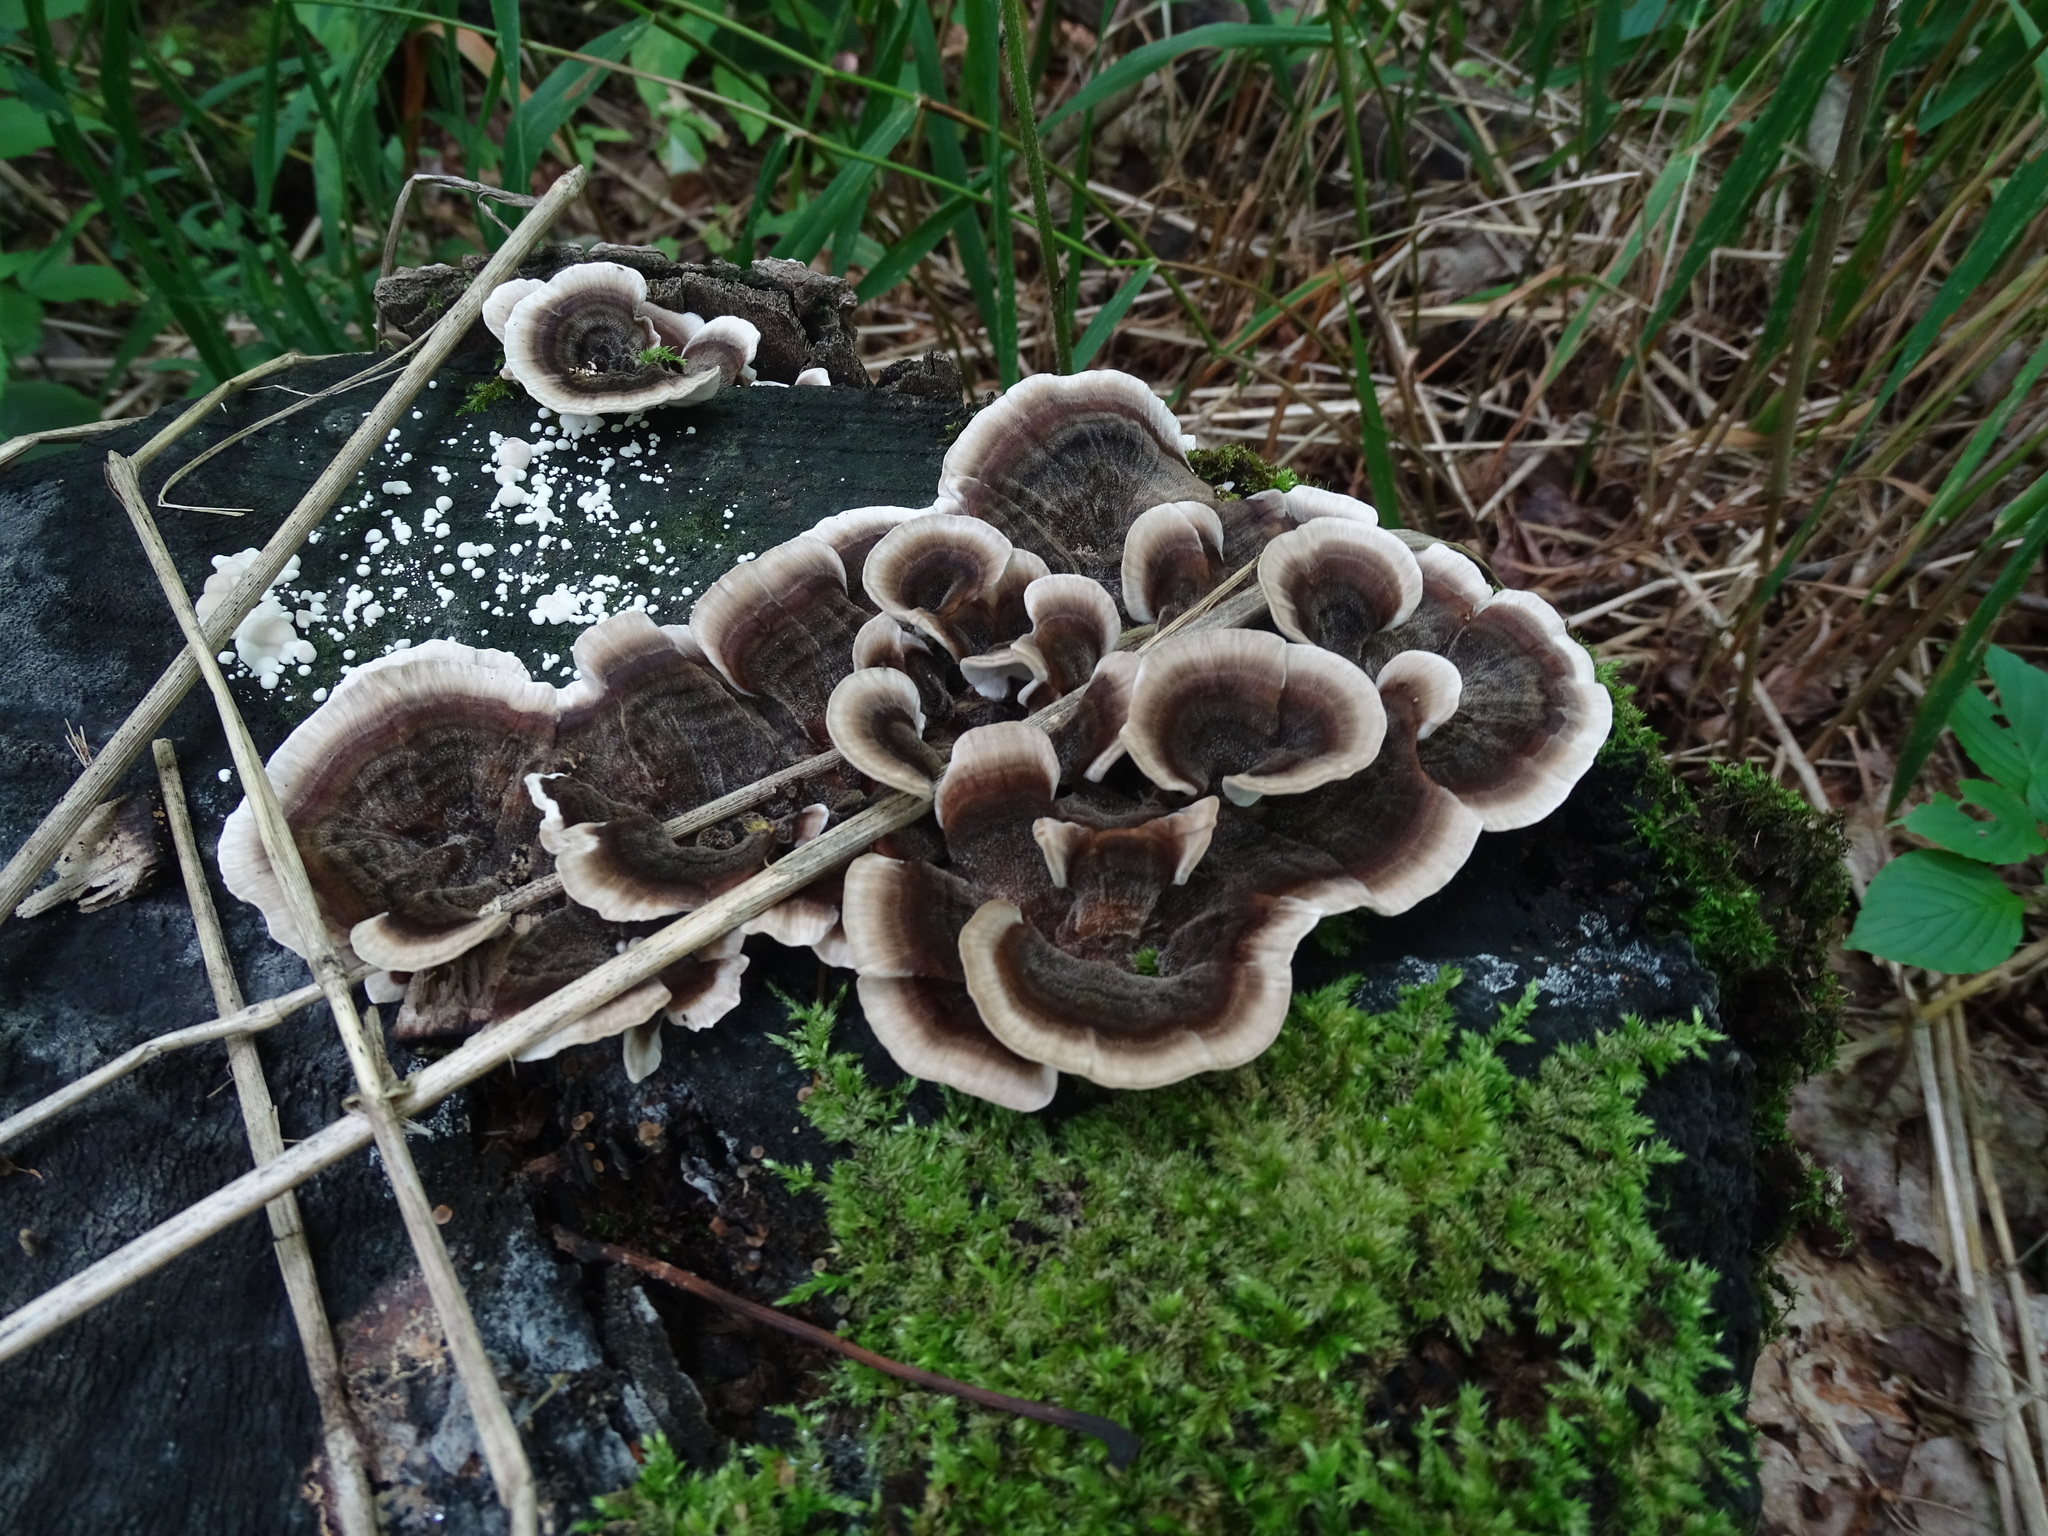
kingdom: Fungi
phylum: Basidiomycota
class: Agaricomycetes
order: Polyporales
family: Polyporaceae
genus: Trametes
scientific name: Trametes versicolor
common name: Turkeytail
